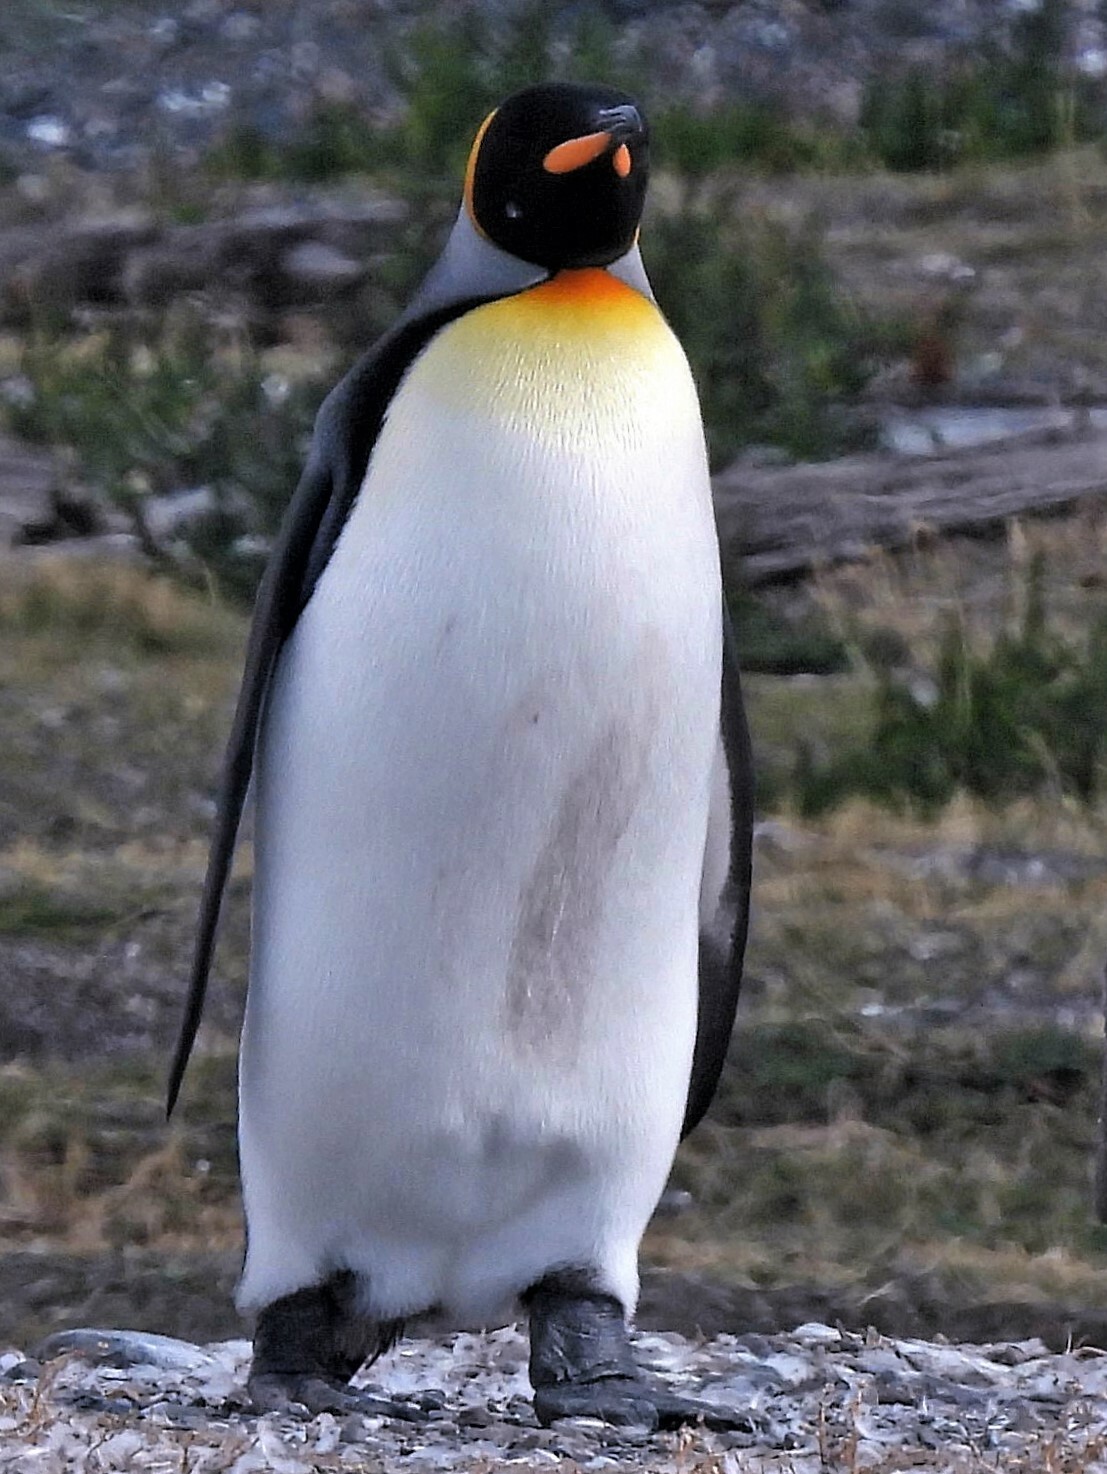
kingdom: Animalia
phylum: Chordata
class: Aves
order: Sphenisciformes
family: Spheniscidae
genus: Aptenodytes
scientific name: Aptenodytes patagonicus
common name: King penguin
